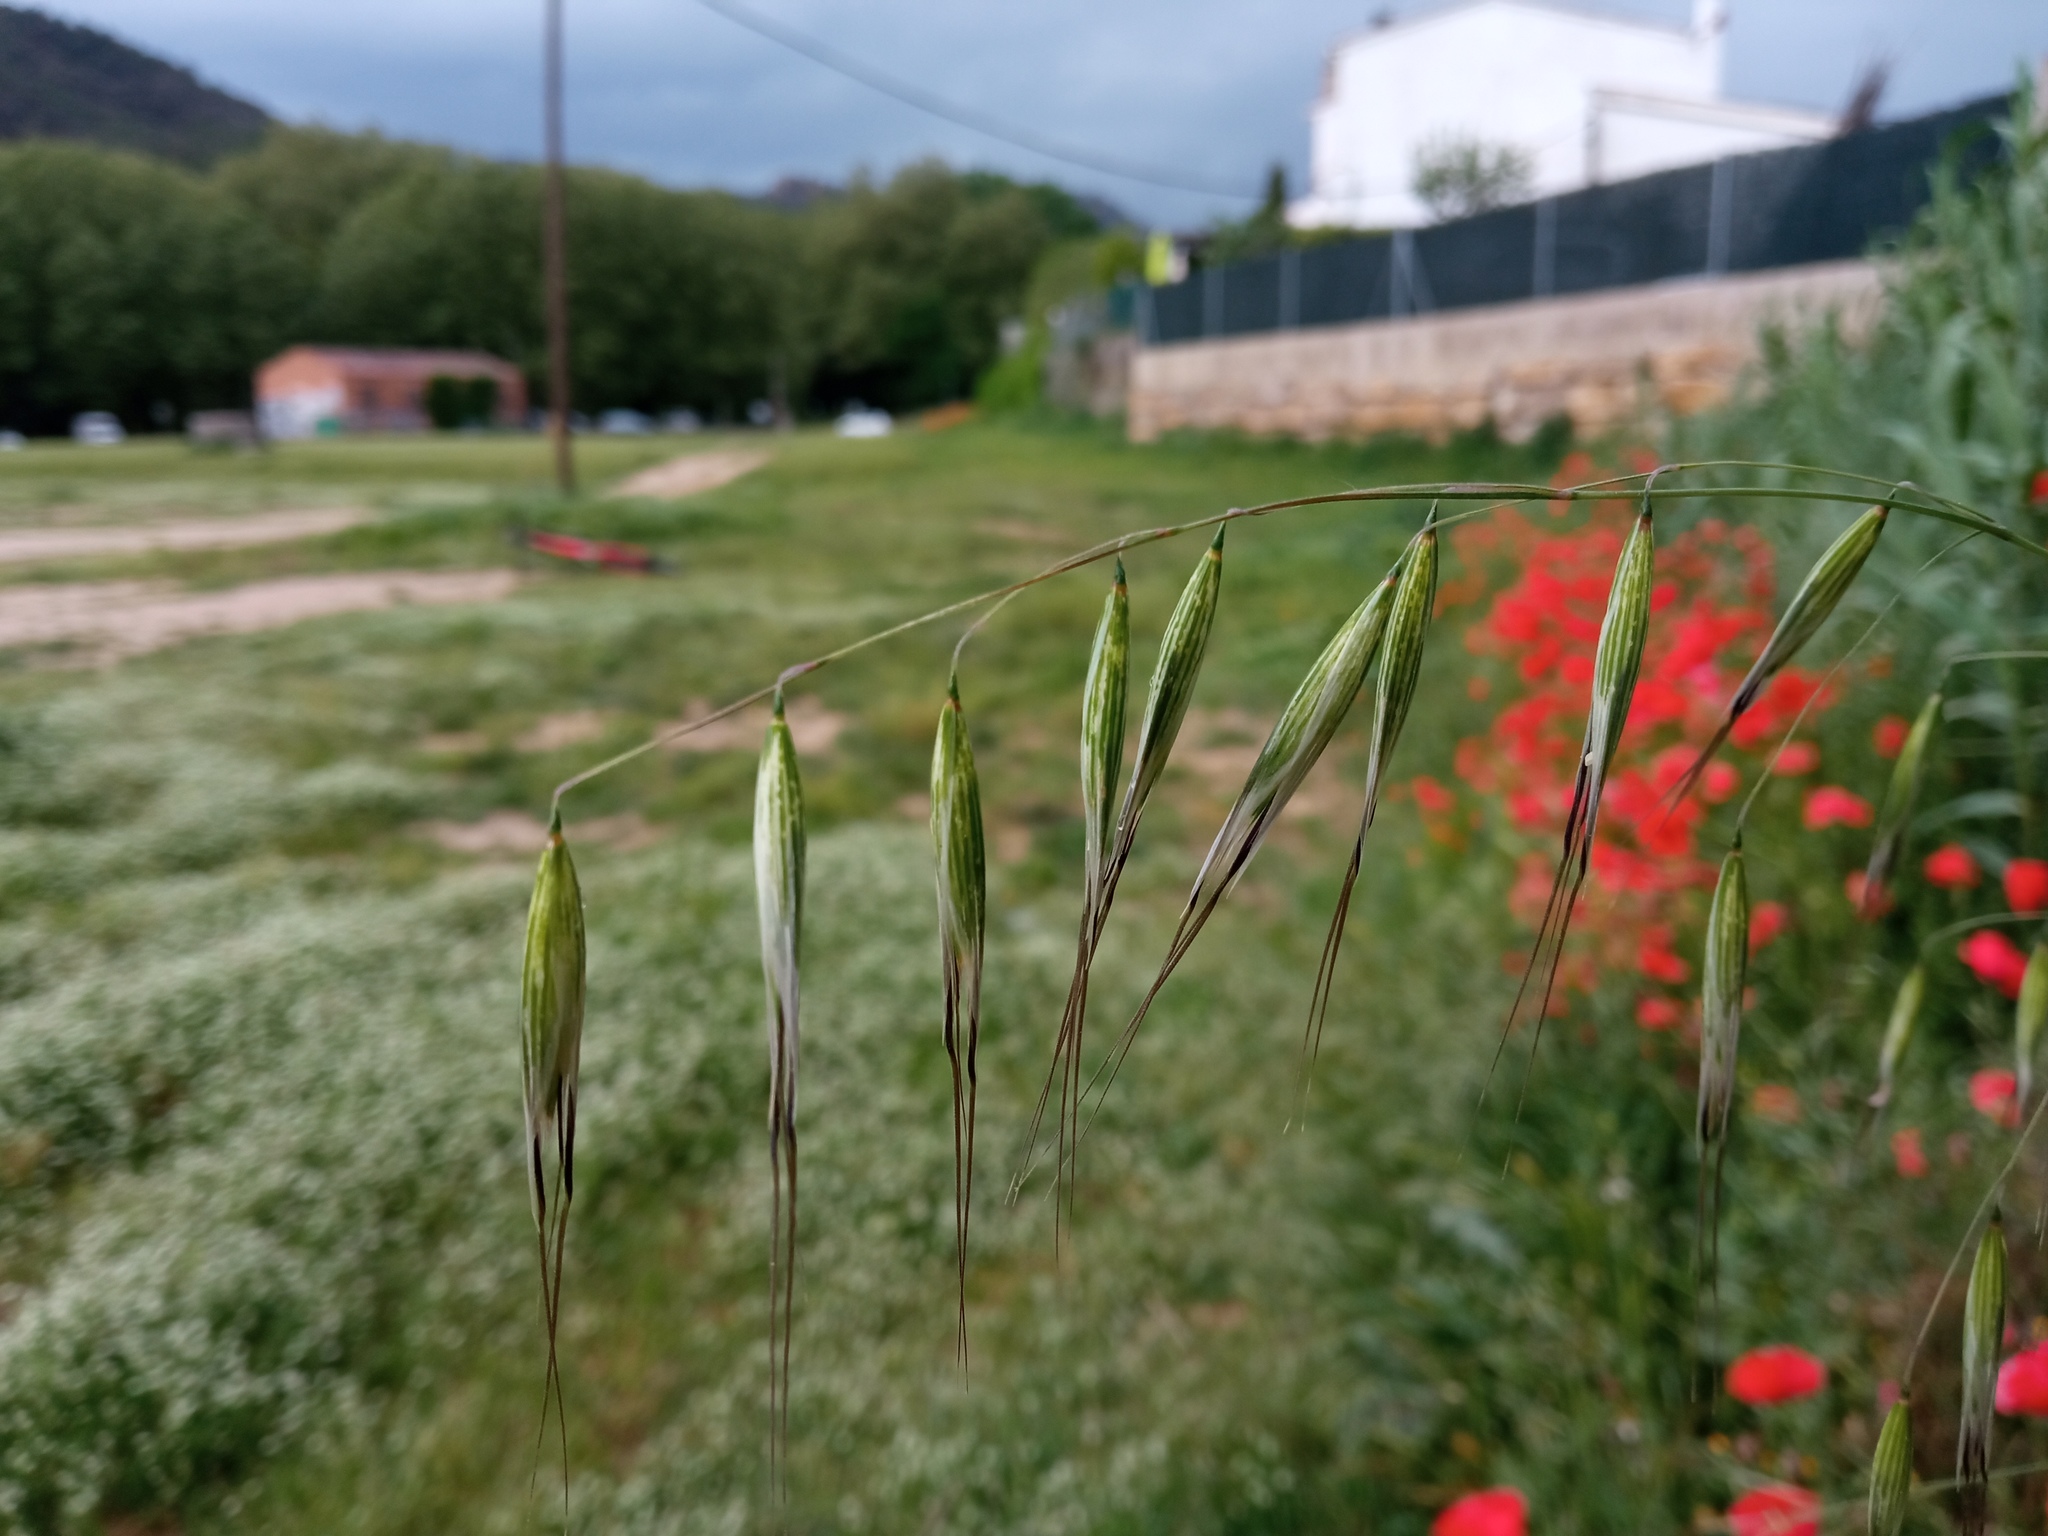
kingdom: Plantae
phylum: Tracheophyta
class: Liliopsida
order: Poales
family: Poaceae
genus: Avena
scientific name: Avena barbata
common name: Slender oat
